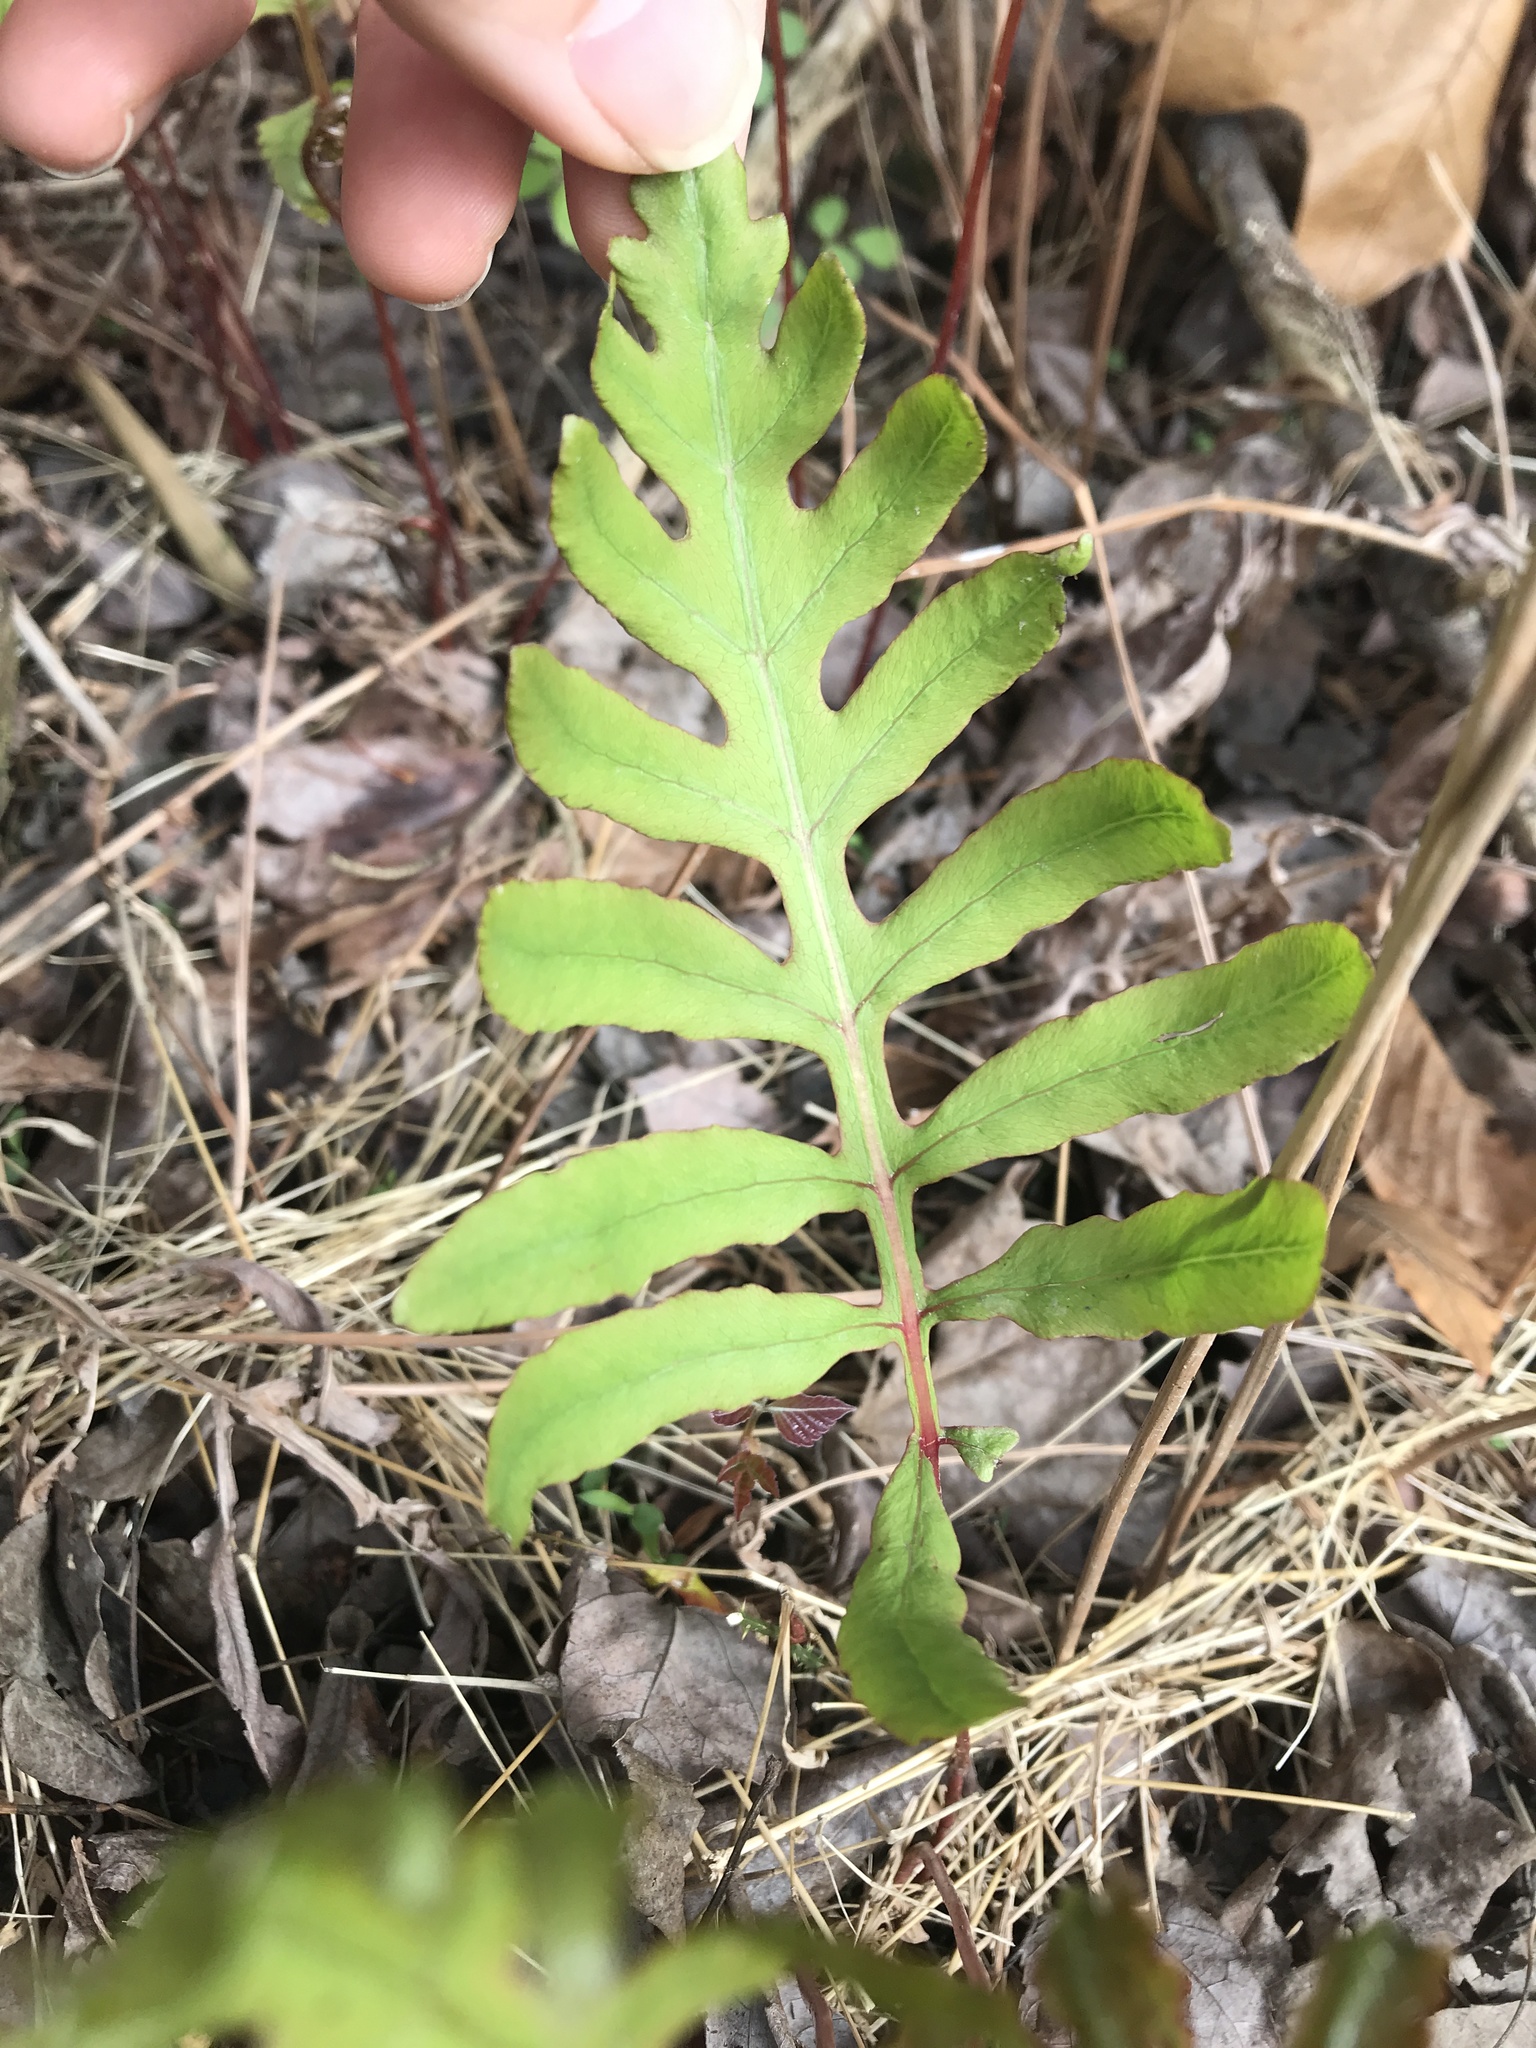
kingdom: Plantae
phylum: Tracheophyta
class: Polypodiopsida
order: Polypodiales
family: Onocleaceae
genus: Onoclea
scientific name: Onoclea sensibilis
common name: Sensitive fern
